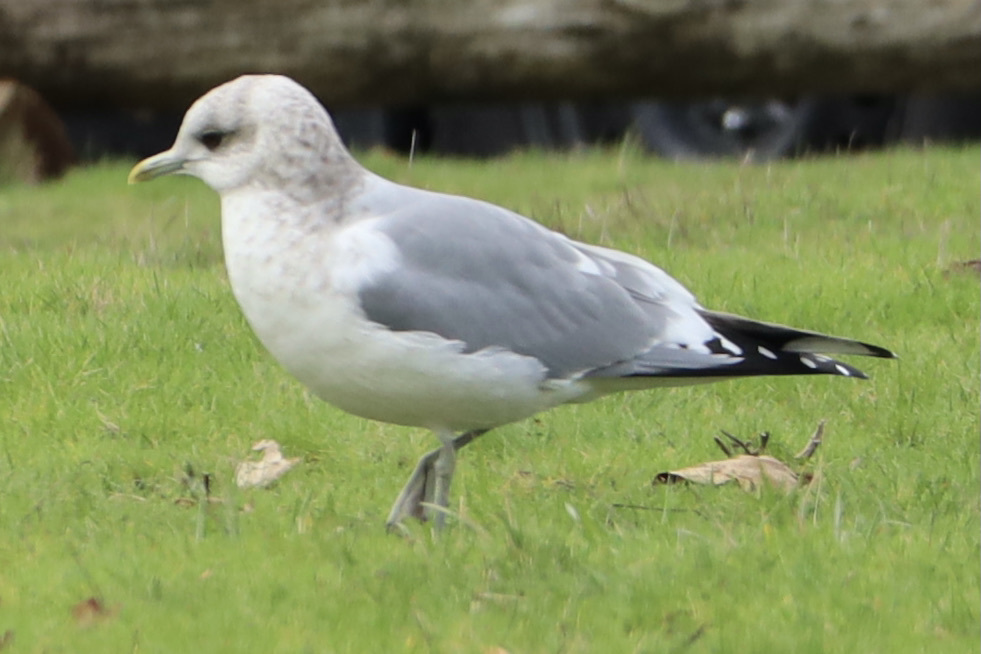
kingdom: Animalia
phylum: Chordata
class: Aves
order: Charadriiformes
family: Laridae
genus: Larus
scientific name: Larus brachyrhynchus
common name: Short-billed gull
